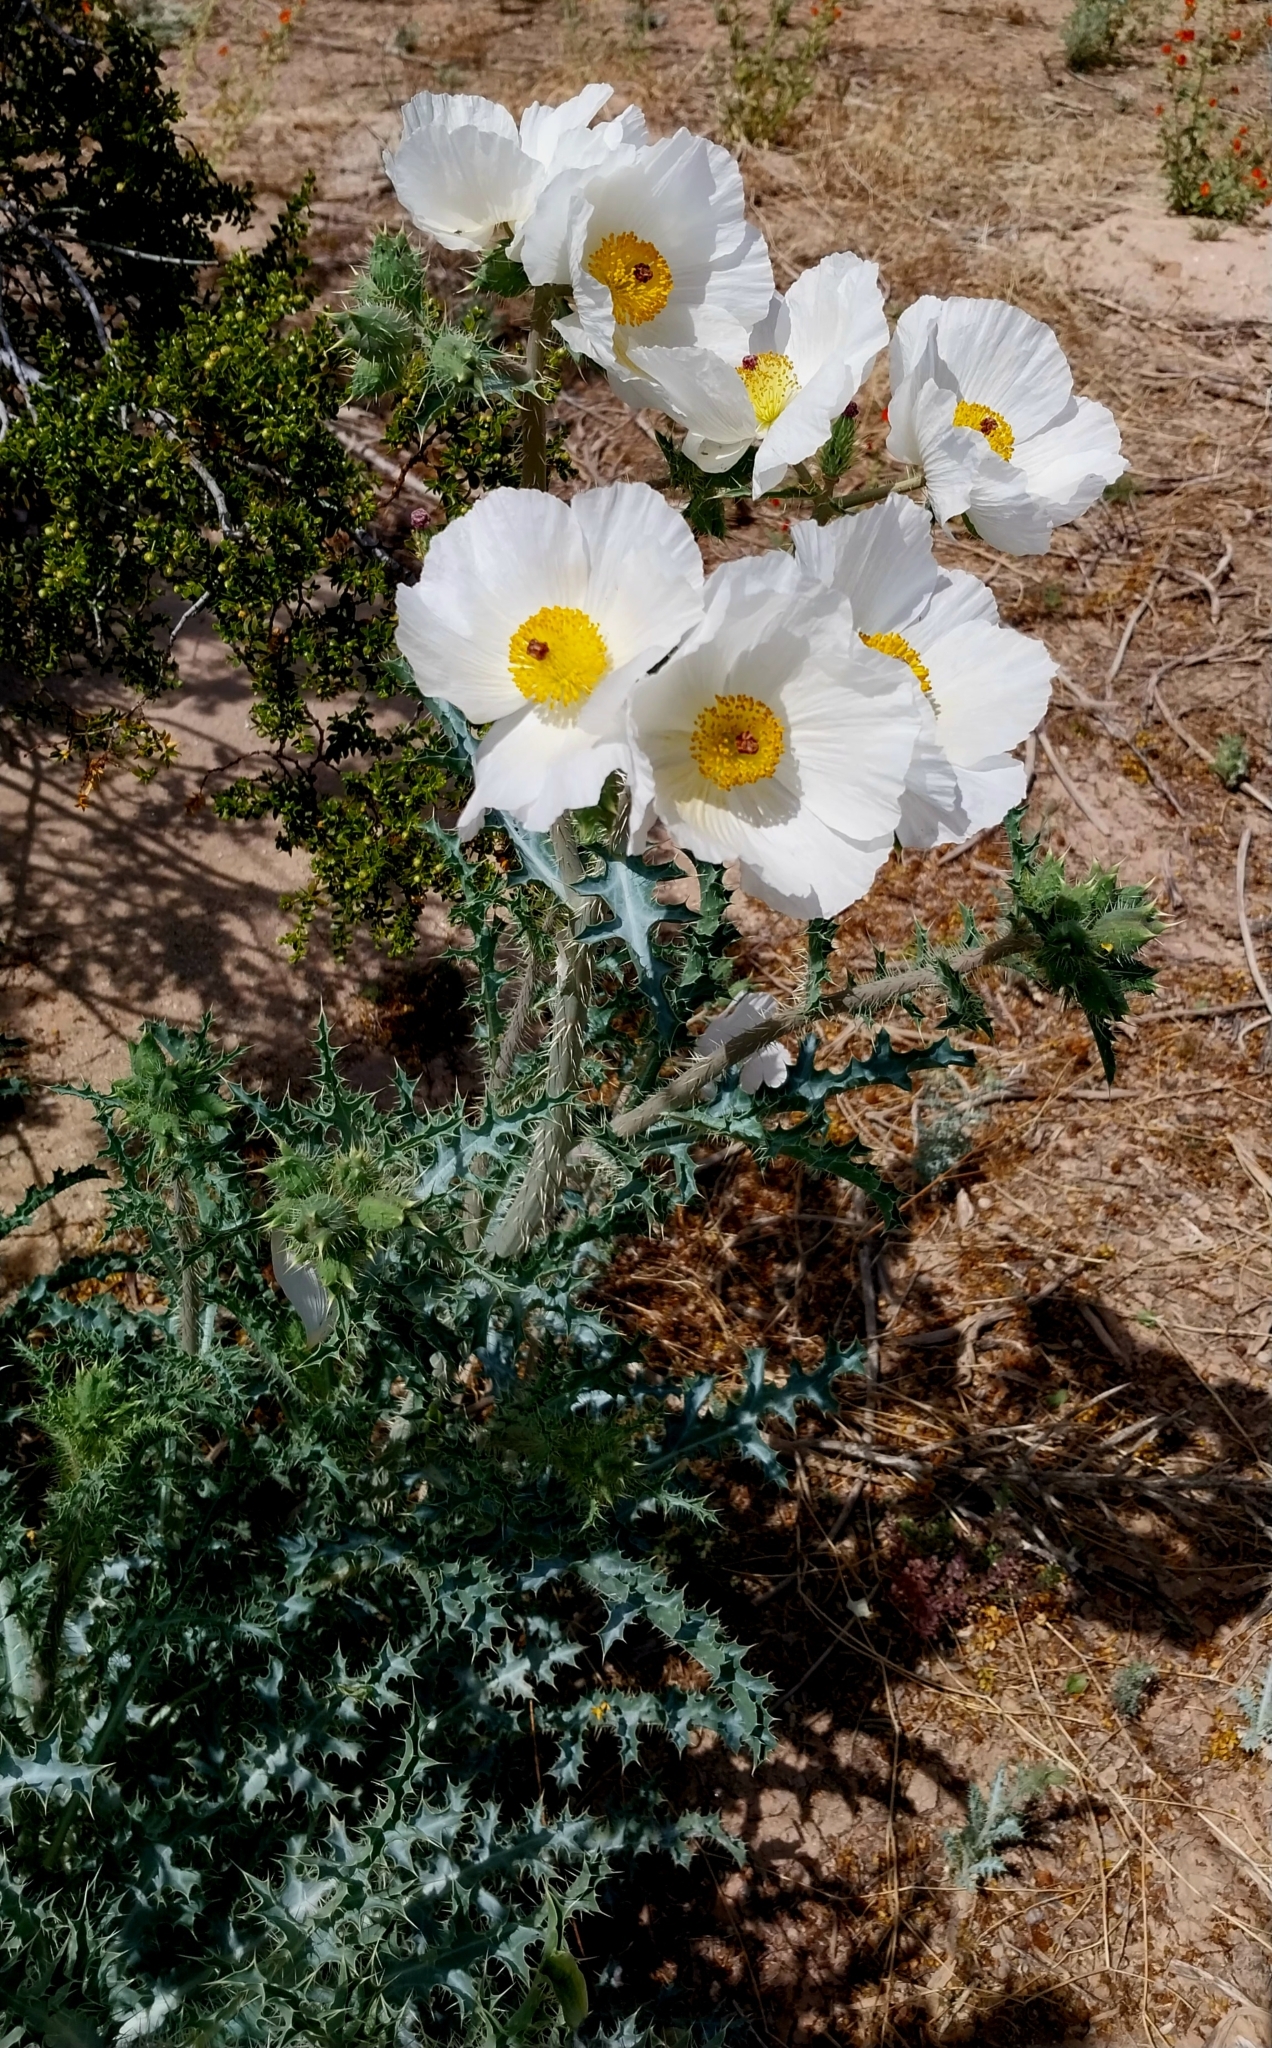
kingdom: Plantae
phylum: Tracheophyta
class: Magnoliopsida
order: Ranunculales
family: Papaveraceae
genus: Argemone
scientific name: Argemone munita
